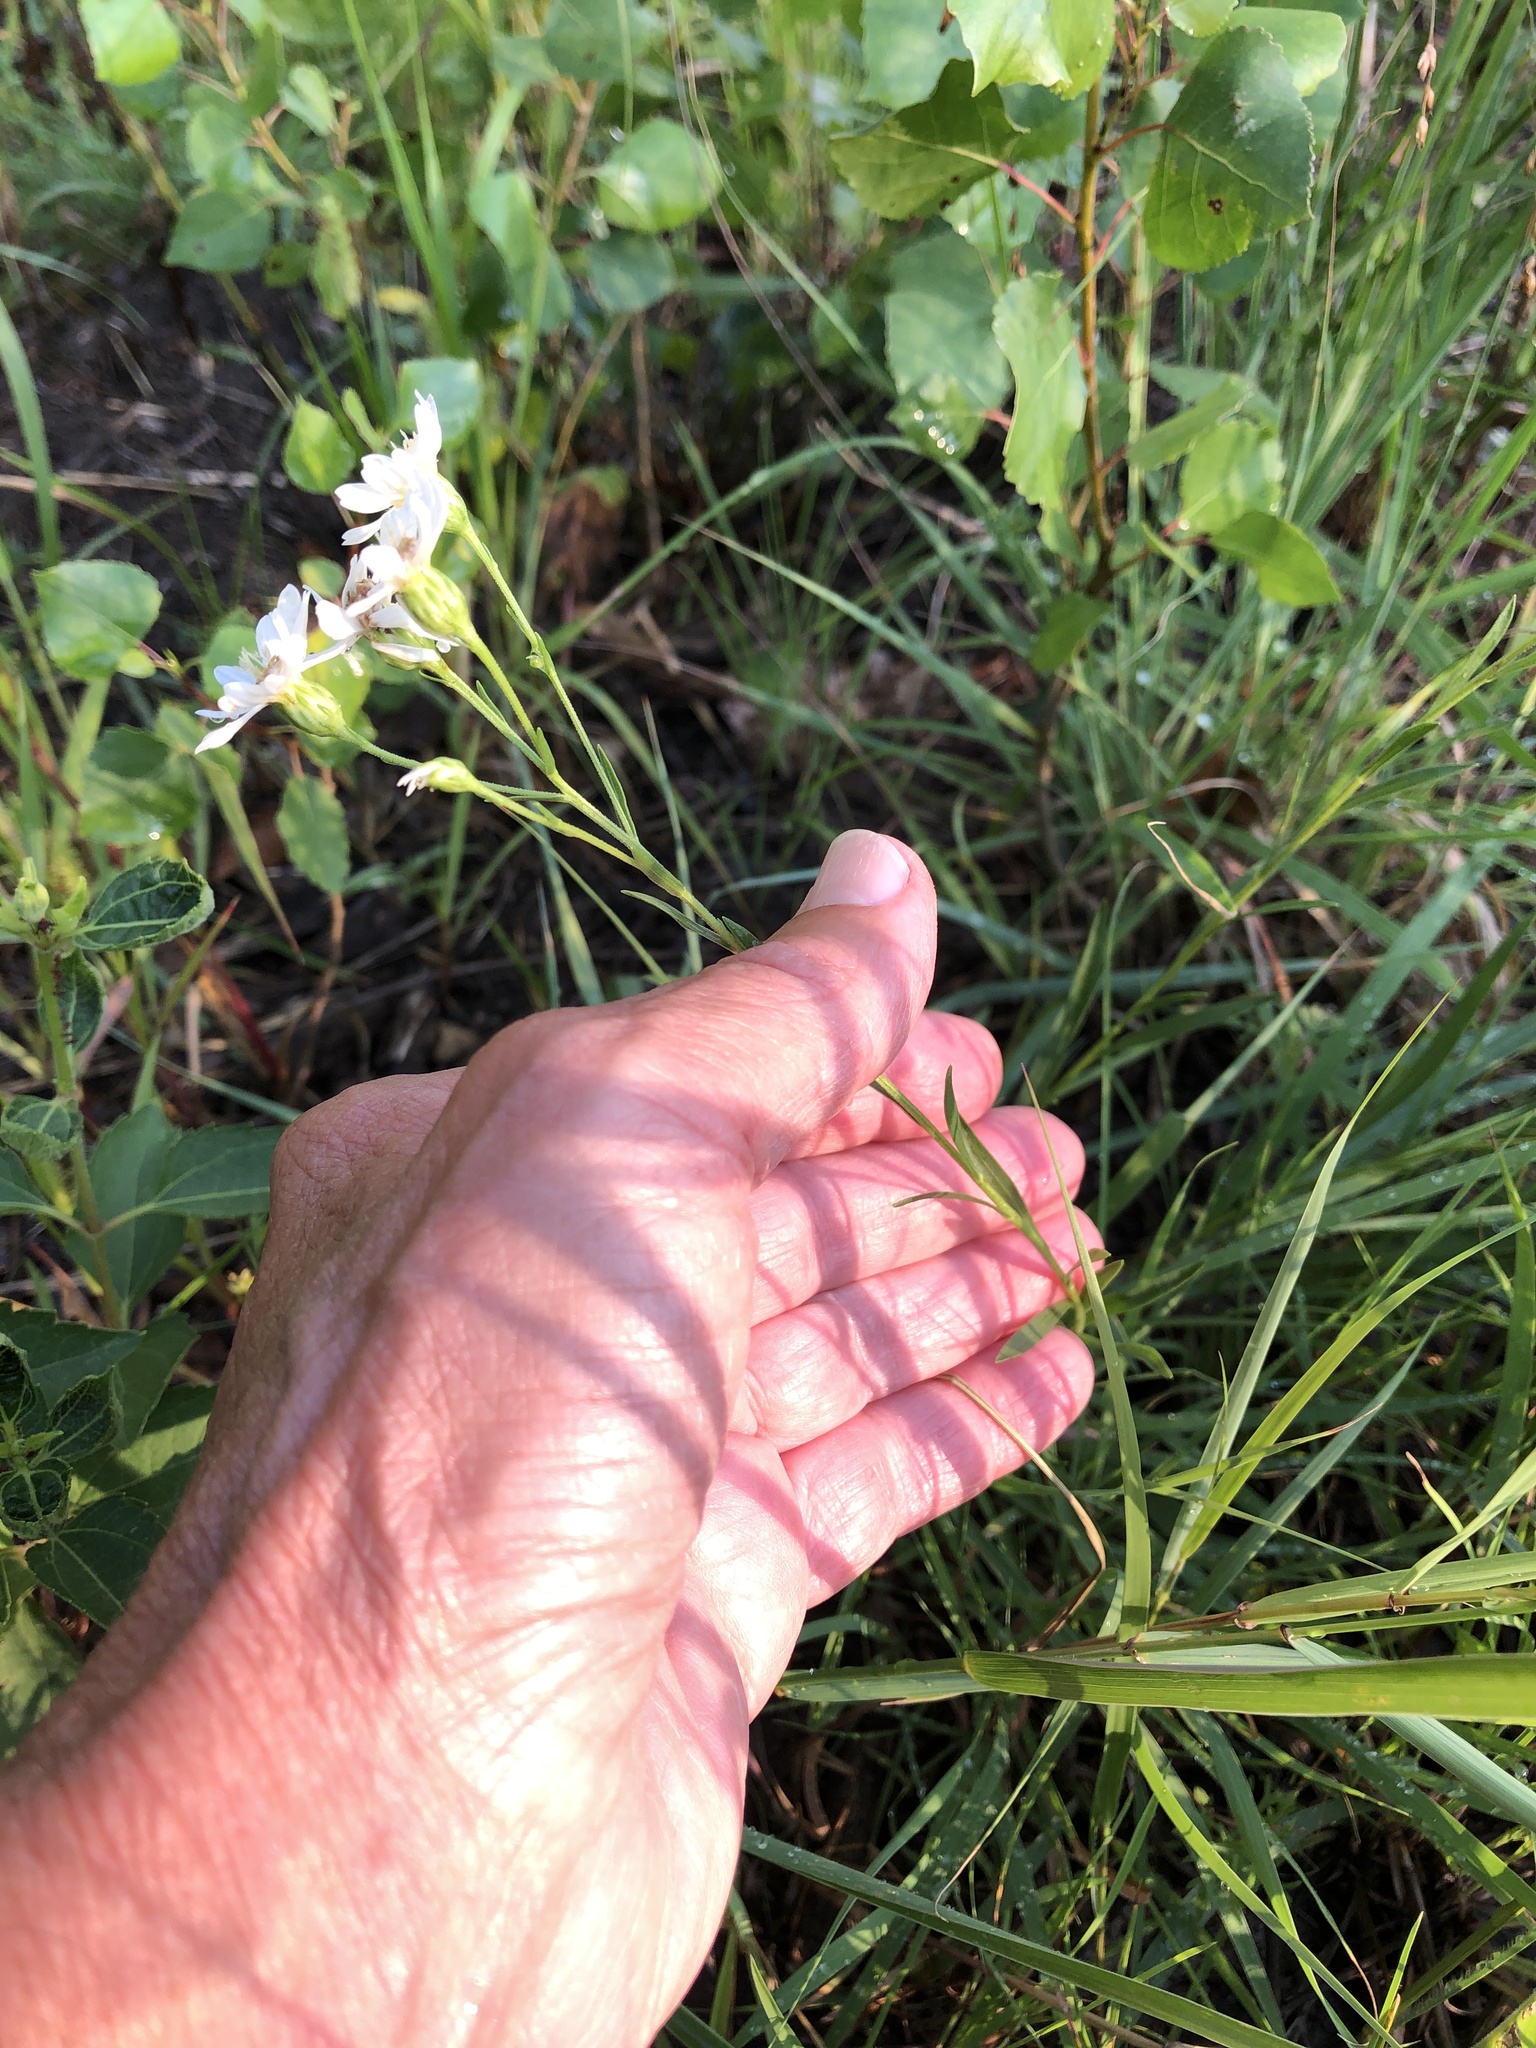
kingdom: Plantae
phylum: Tracheophyta
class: Magnoliopsida
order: Asterales
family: Asteraceae
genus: Solidago
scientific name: Solidago ptarmicoides
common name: White flat-top goldenrod
